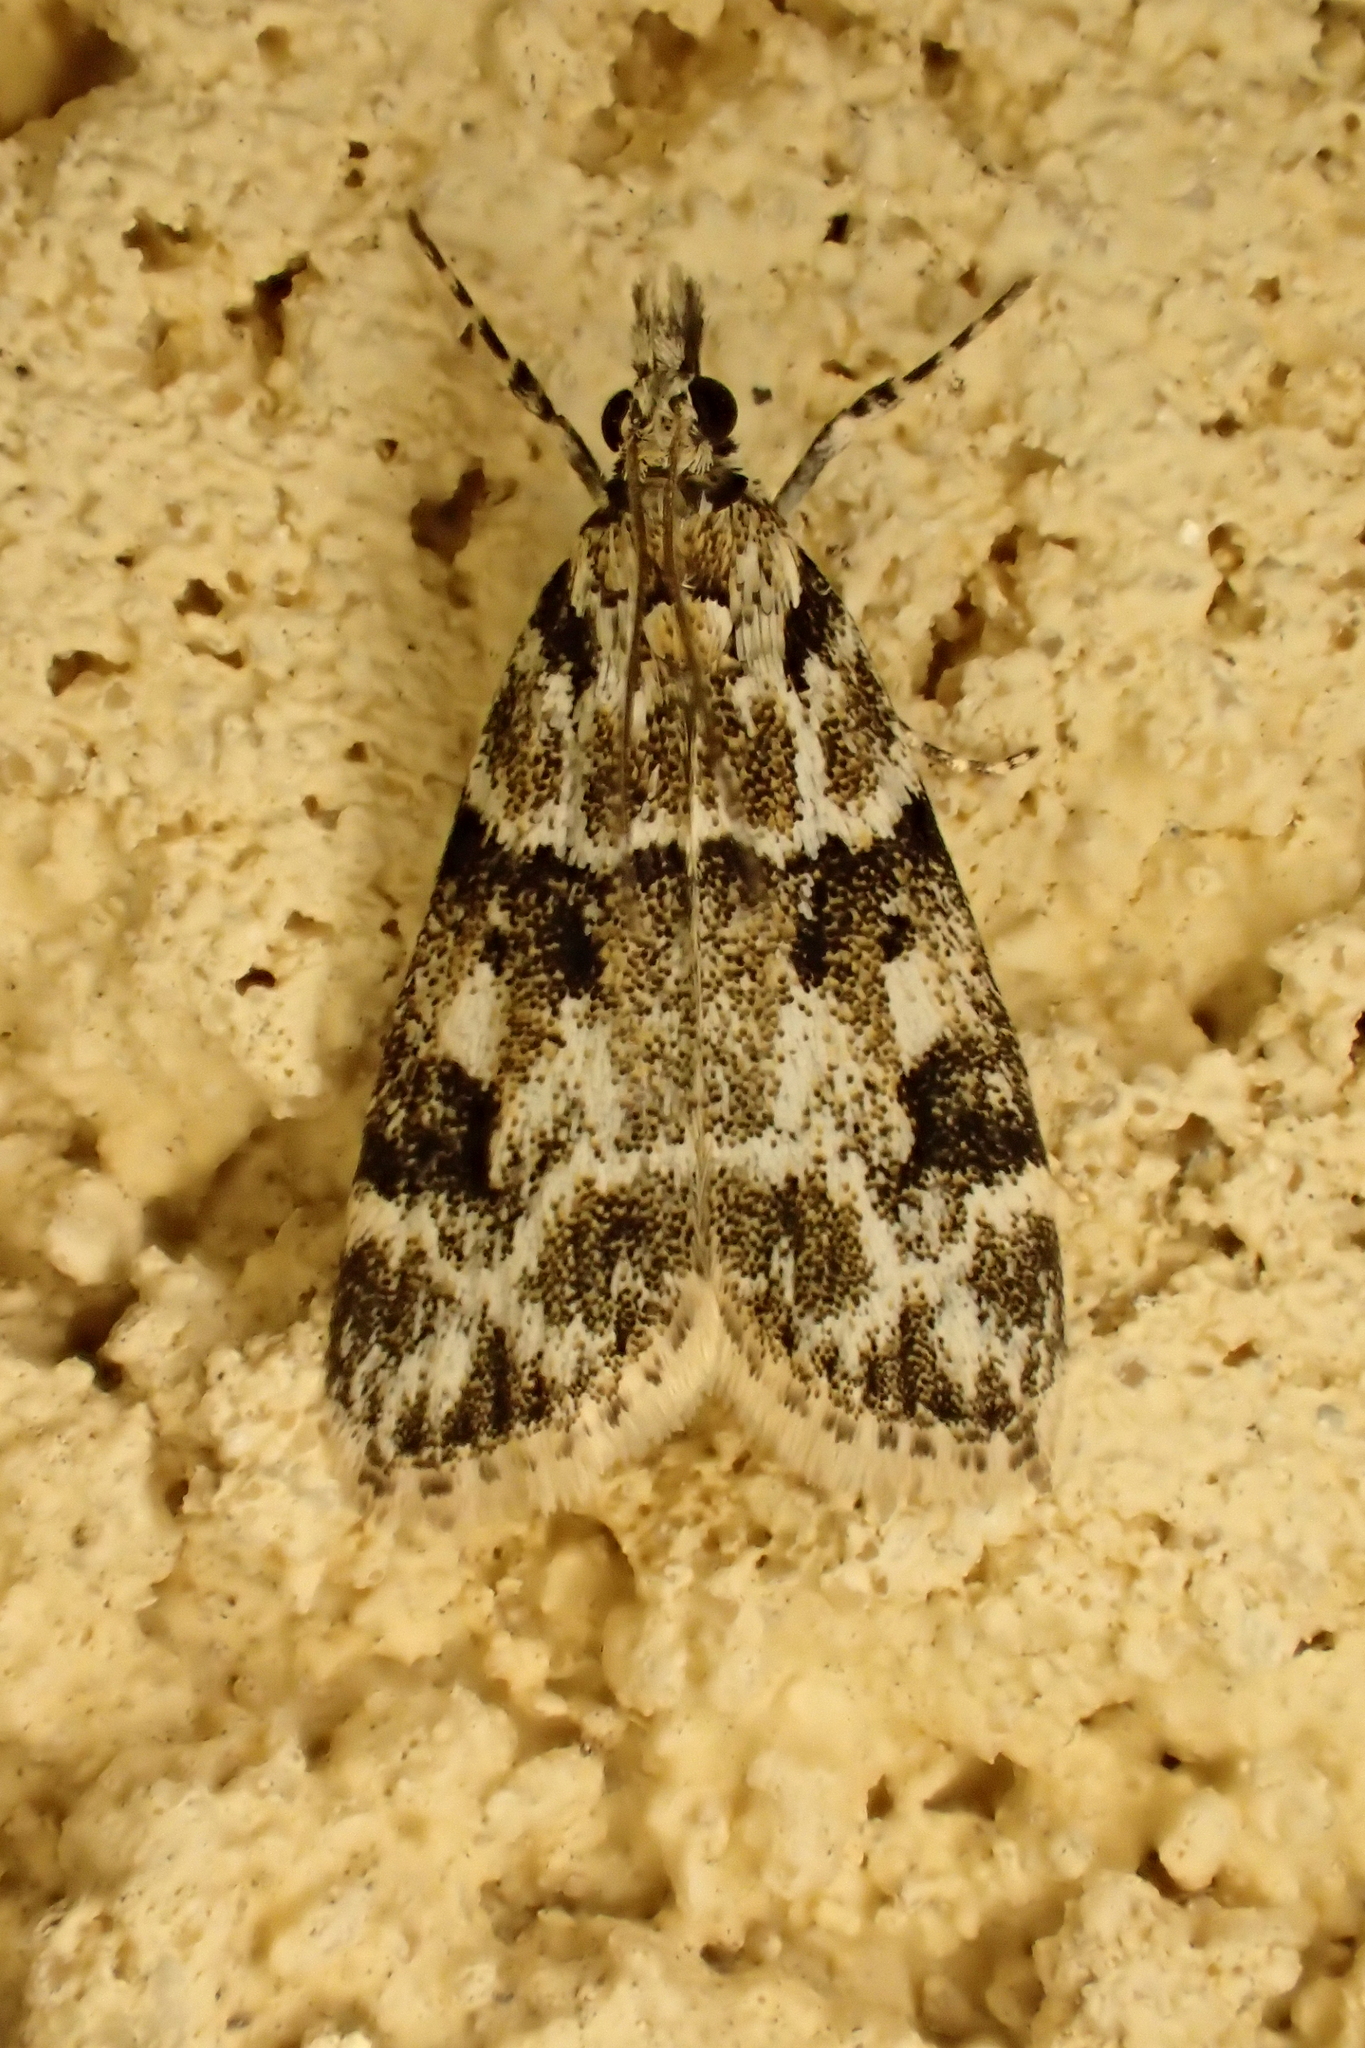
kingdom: Animalia
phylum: Arthropoda
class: Insecta
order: Lepidoptera
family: Crambidae
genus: Eudonia
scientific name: Eudonia delunella
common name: Pied grey
